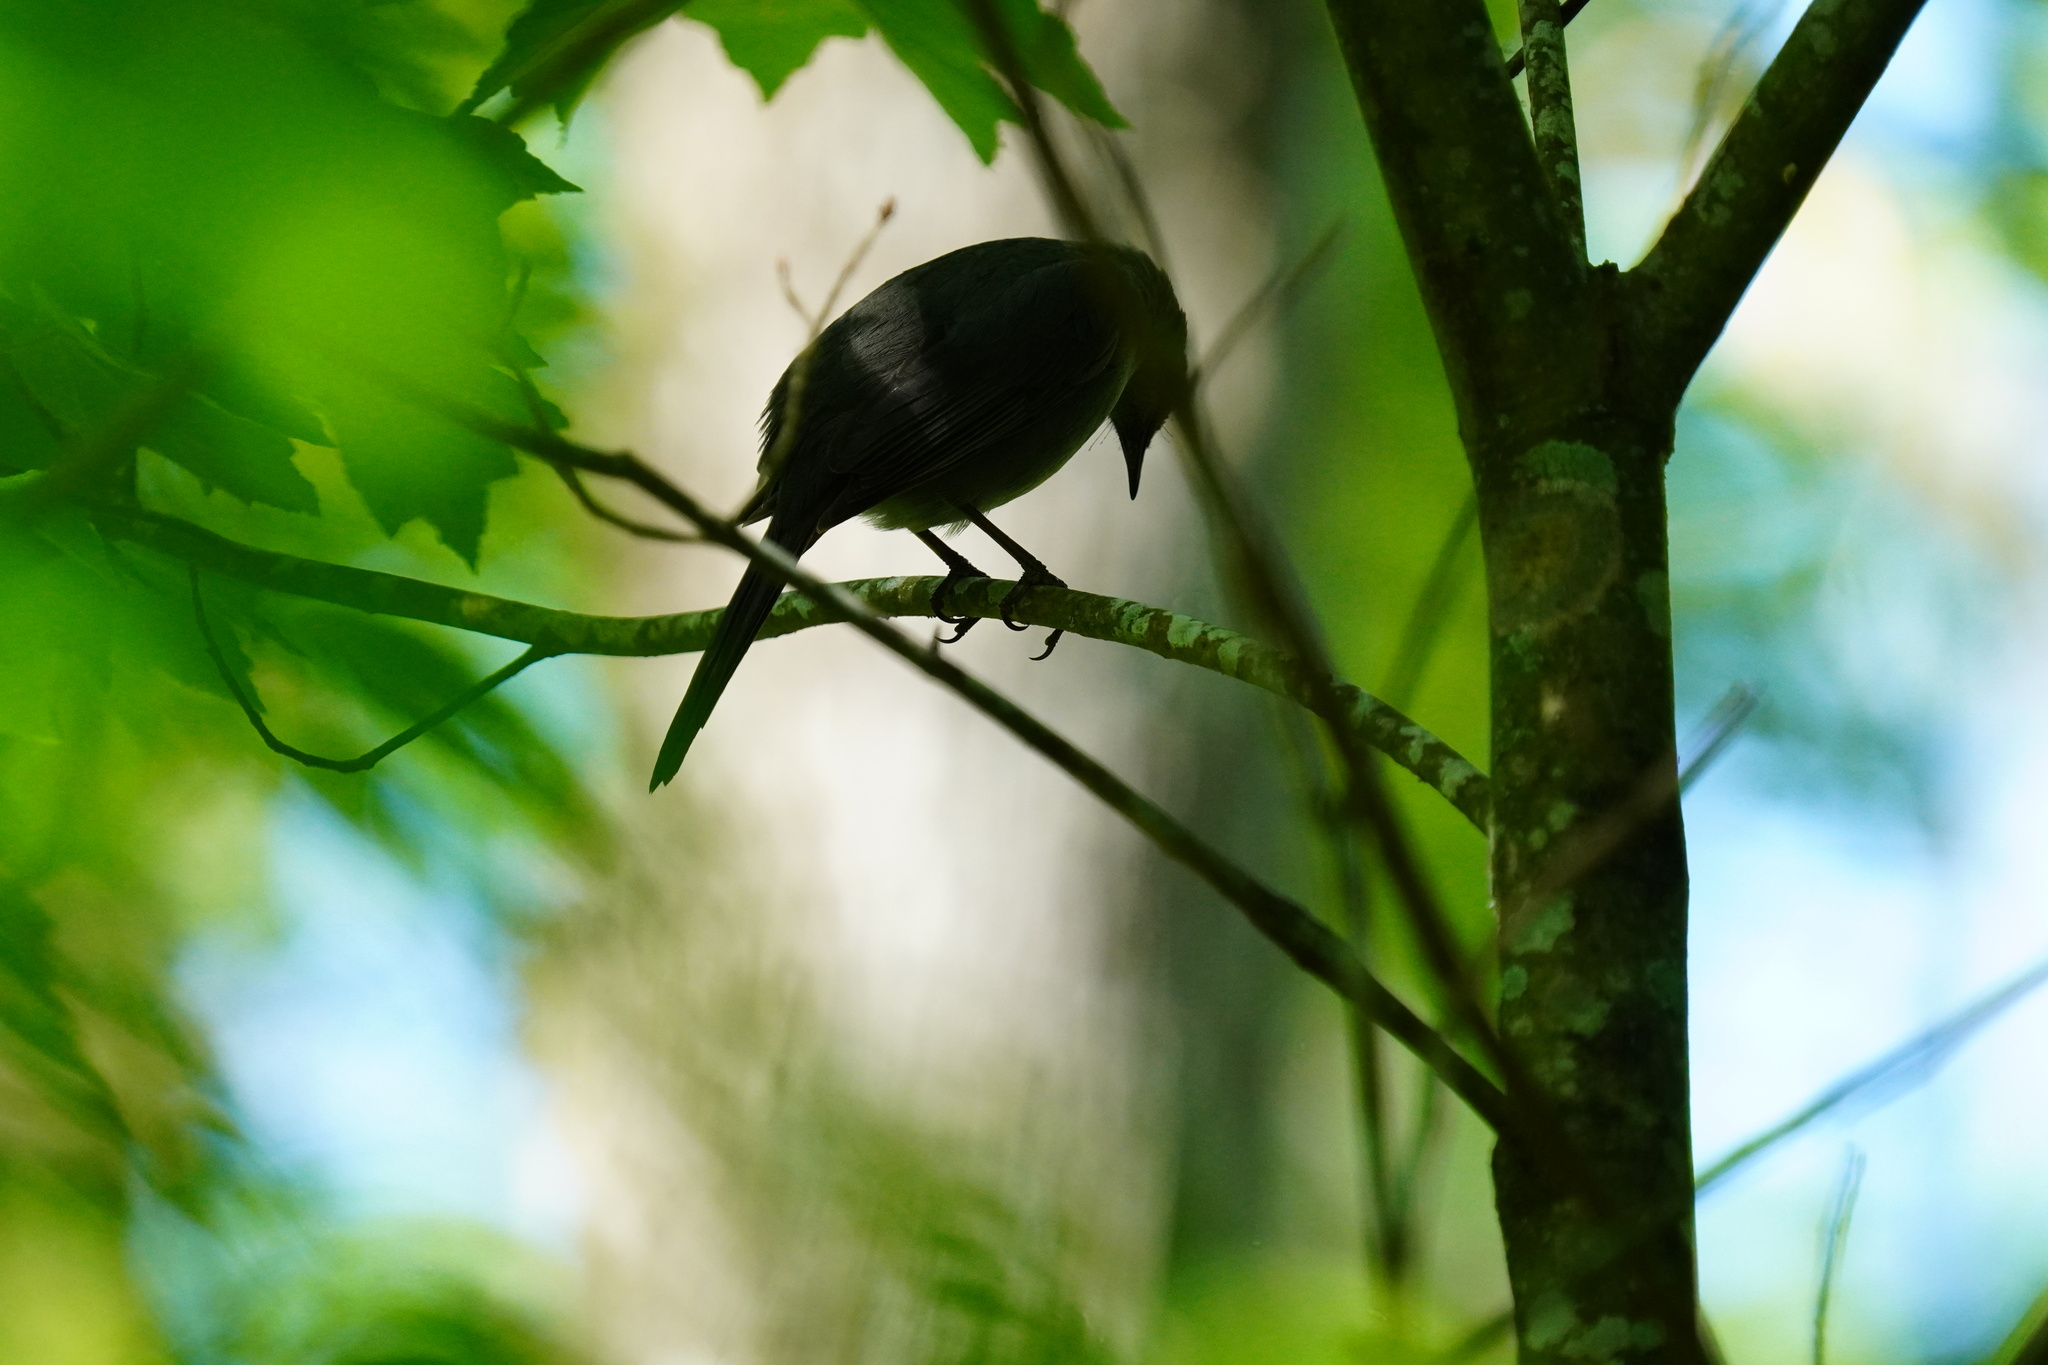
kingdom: Animalia
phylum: Chordata
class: Aves
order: Passeriformes
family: Mimidae
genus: Dumetella
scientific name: Dumetella carolinensis
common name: Gray catbird
